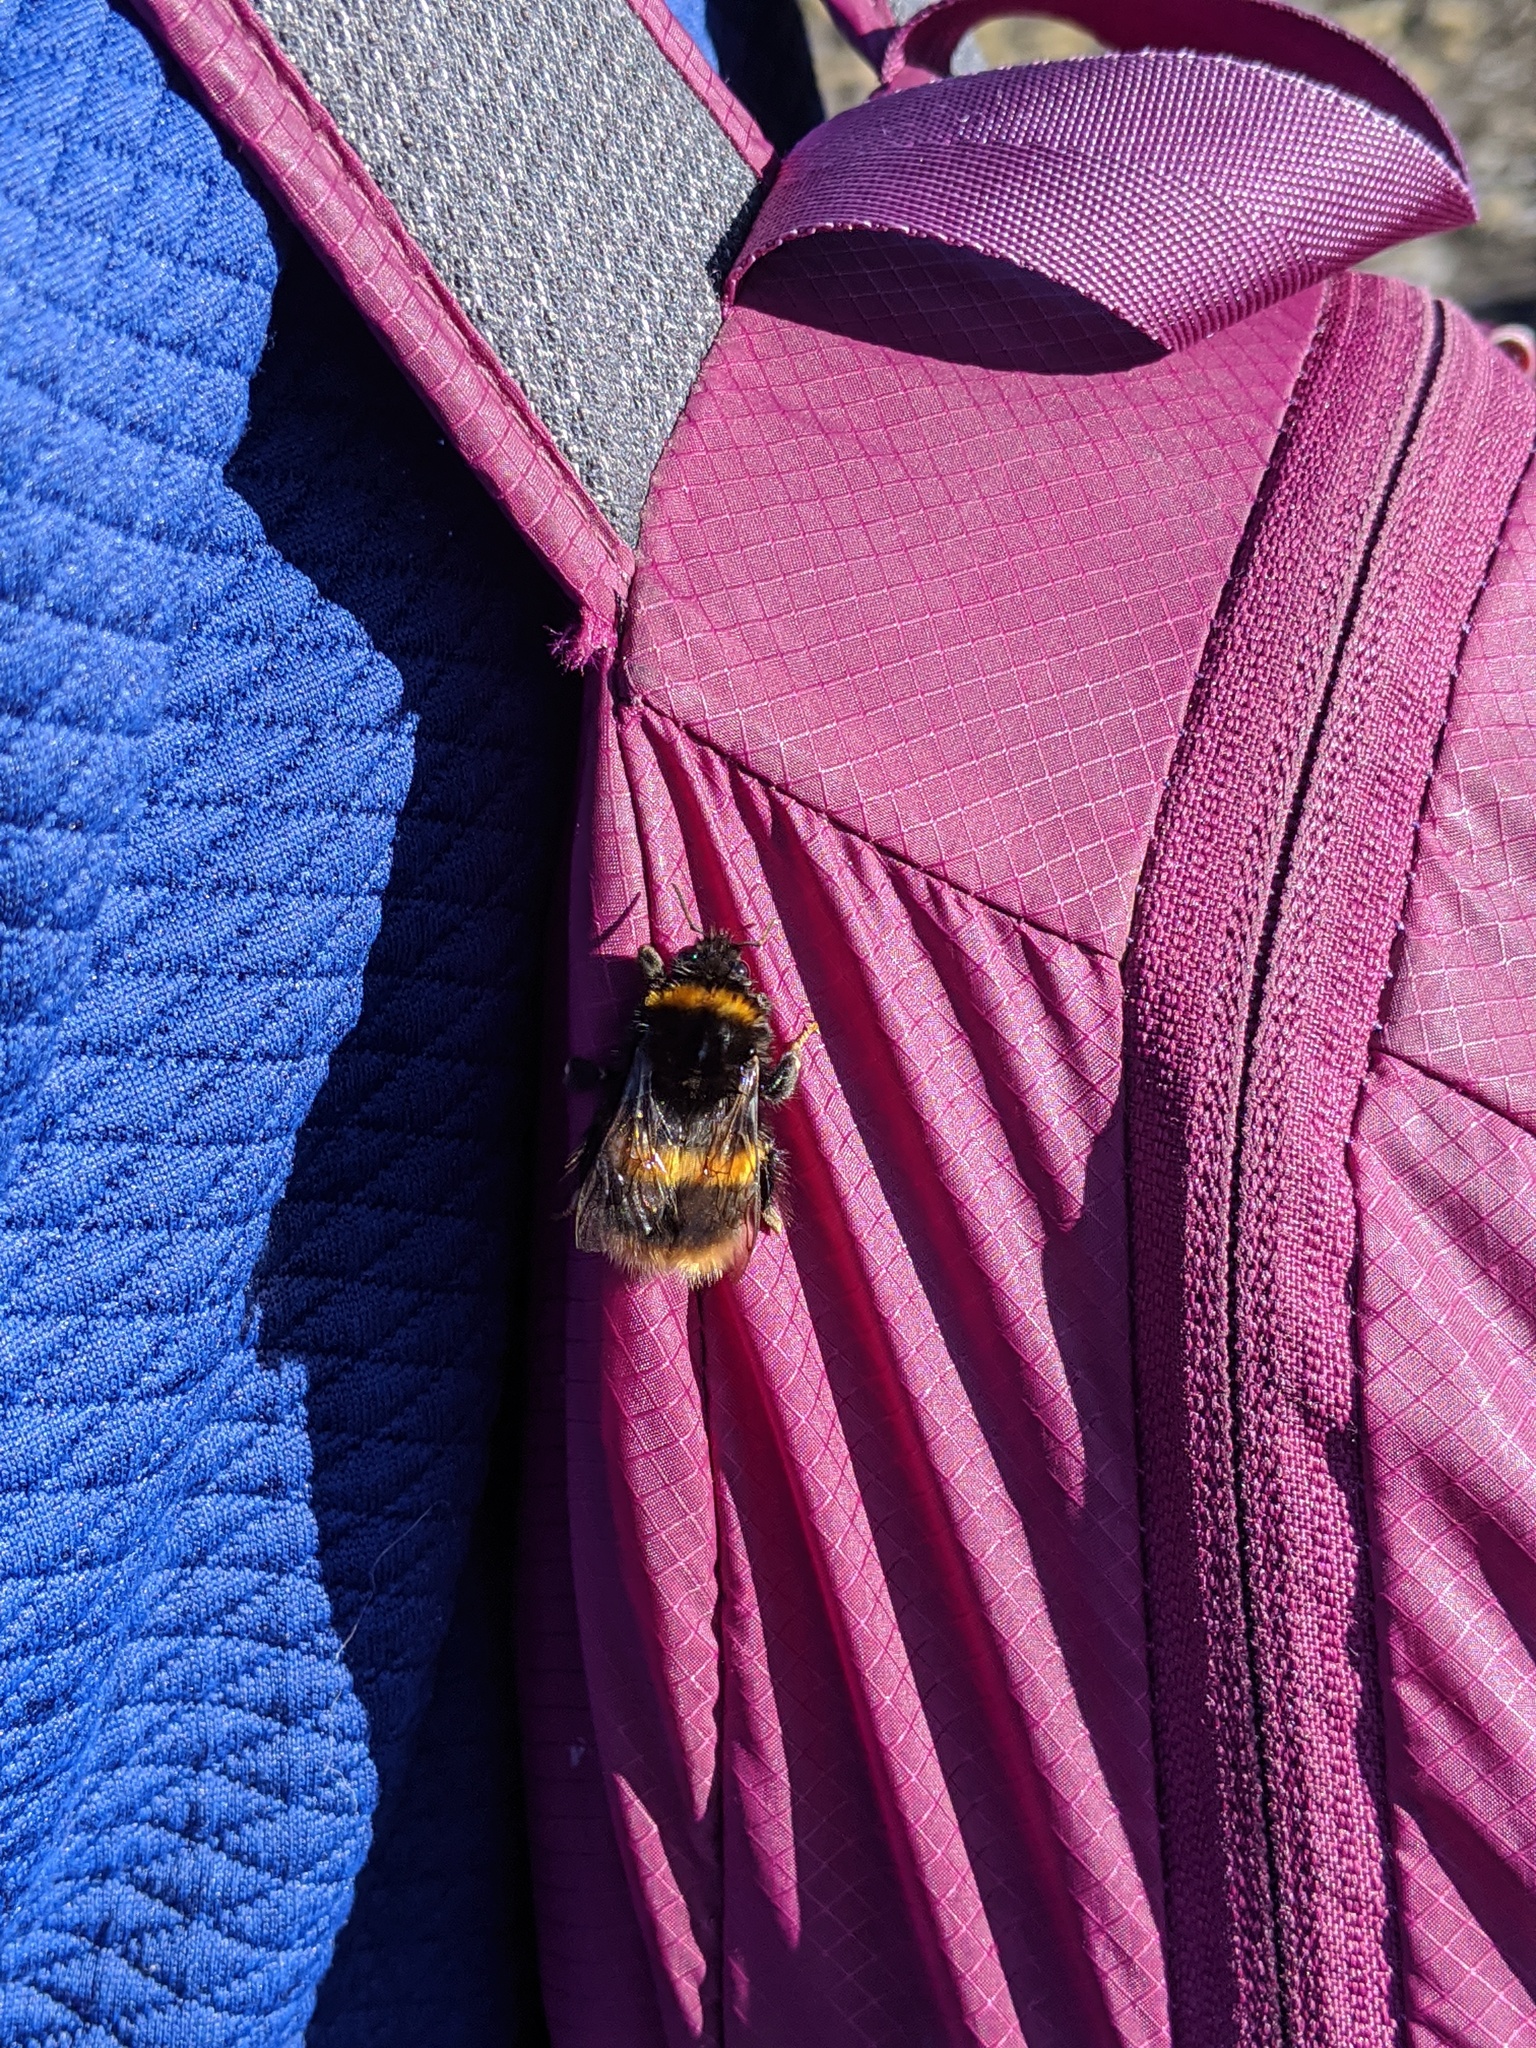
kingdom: Animalia
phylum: Arthropoda
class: Insecta
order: Hymenoptera
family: Apidae
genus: Bombus
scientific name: Bombus terrestris
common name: Buff-tailed bumblebee
